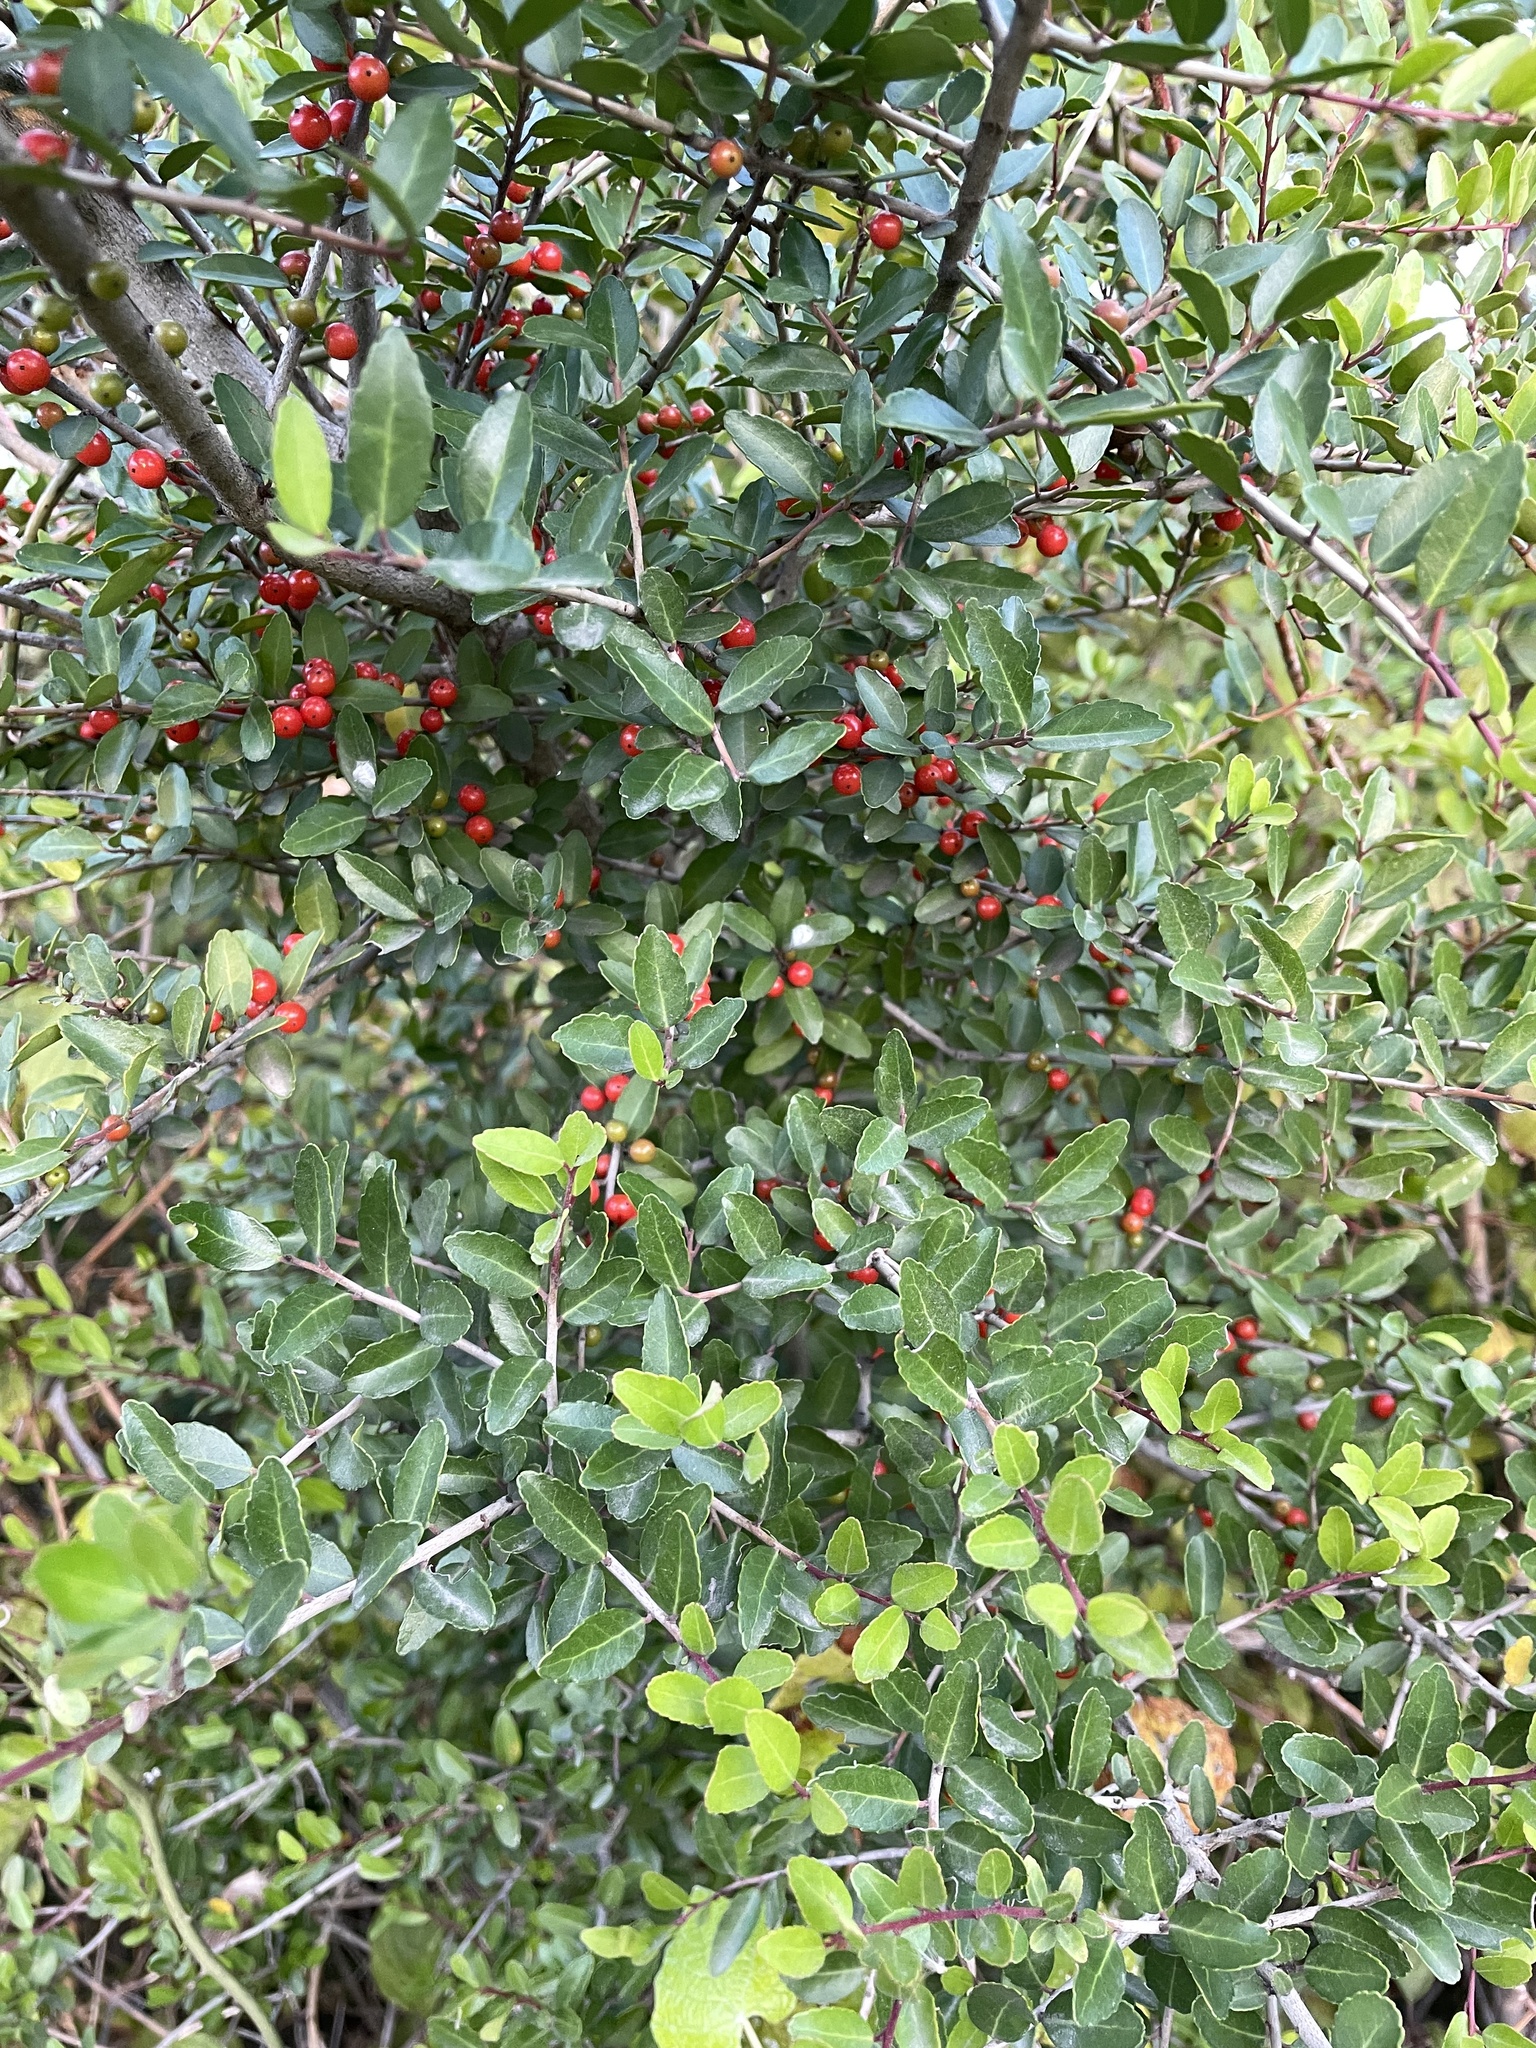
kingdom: Plantae
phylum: Tracheophyta
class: Magnoliopsida
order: Aquifoliales
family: Aquifoliaceae
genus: Ilex
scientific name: Ilex vomitoria
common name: Yaupon holly
